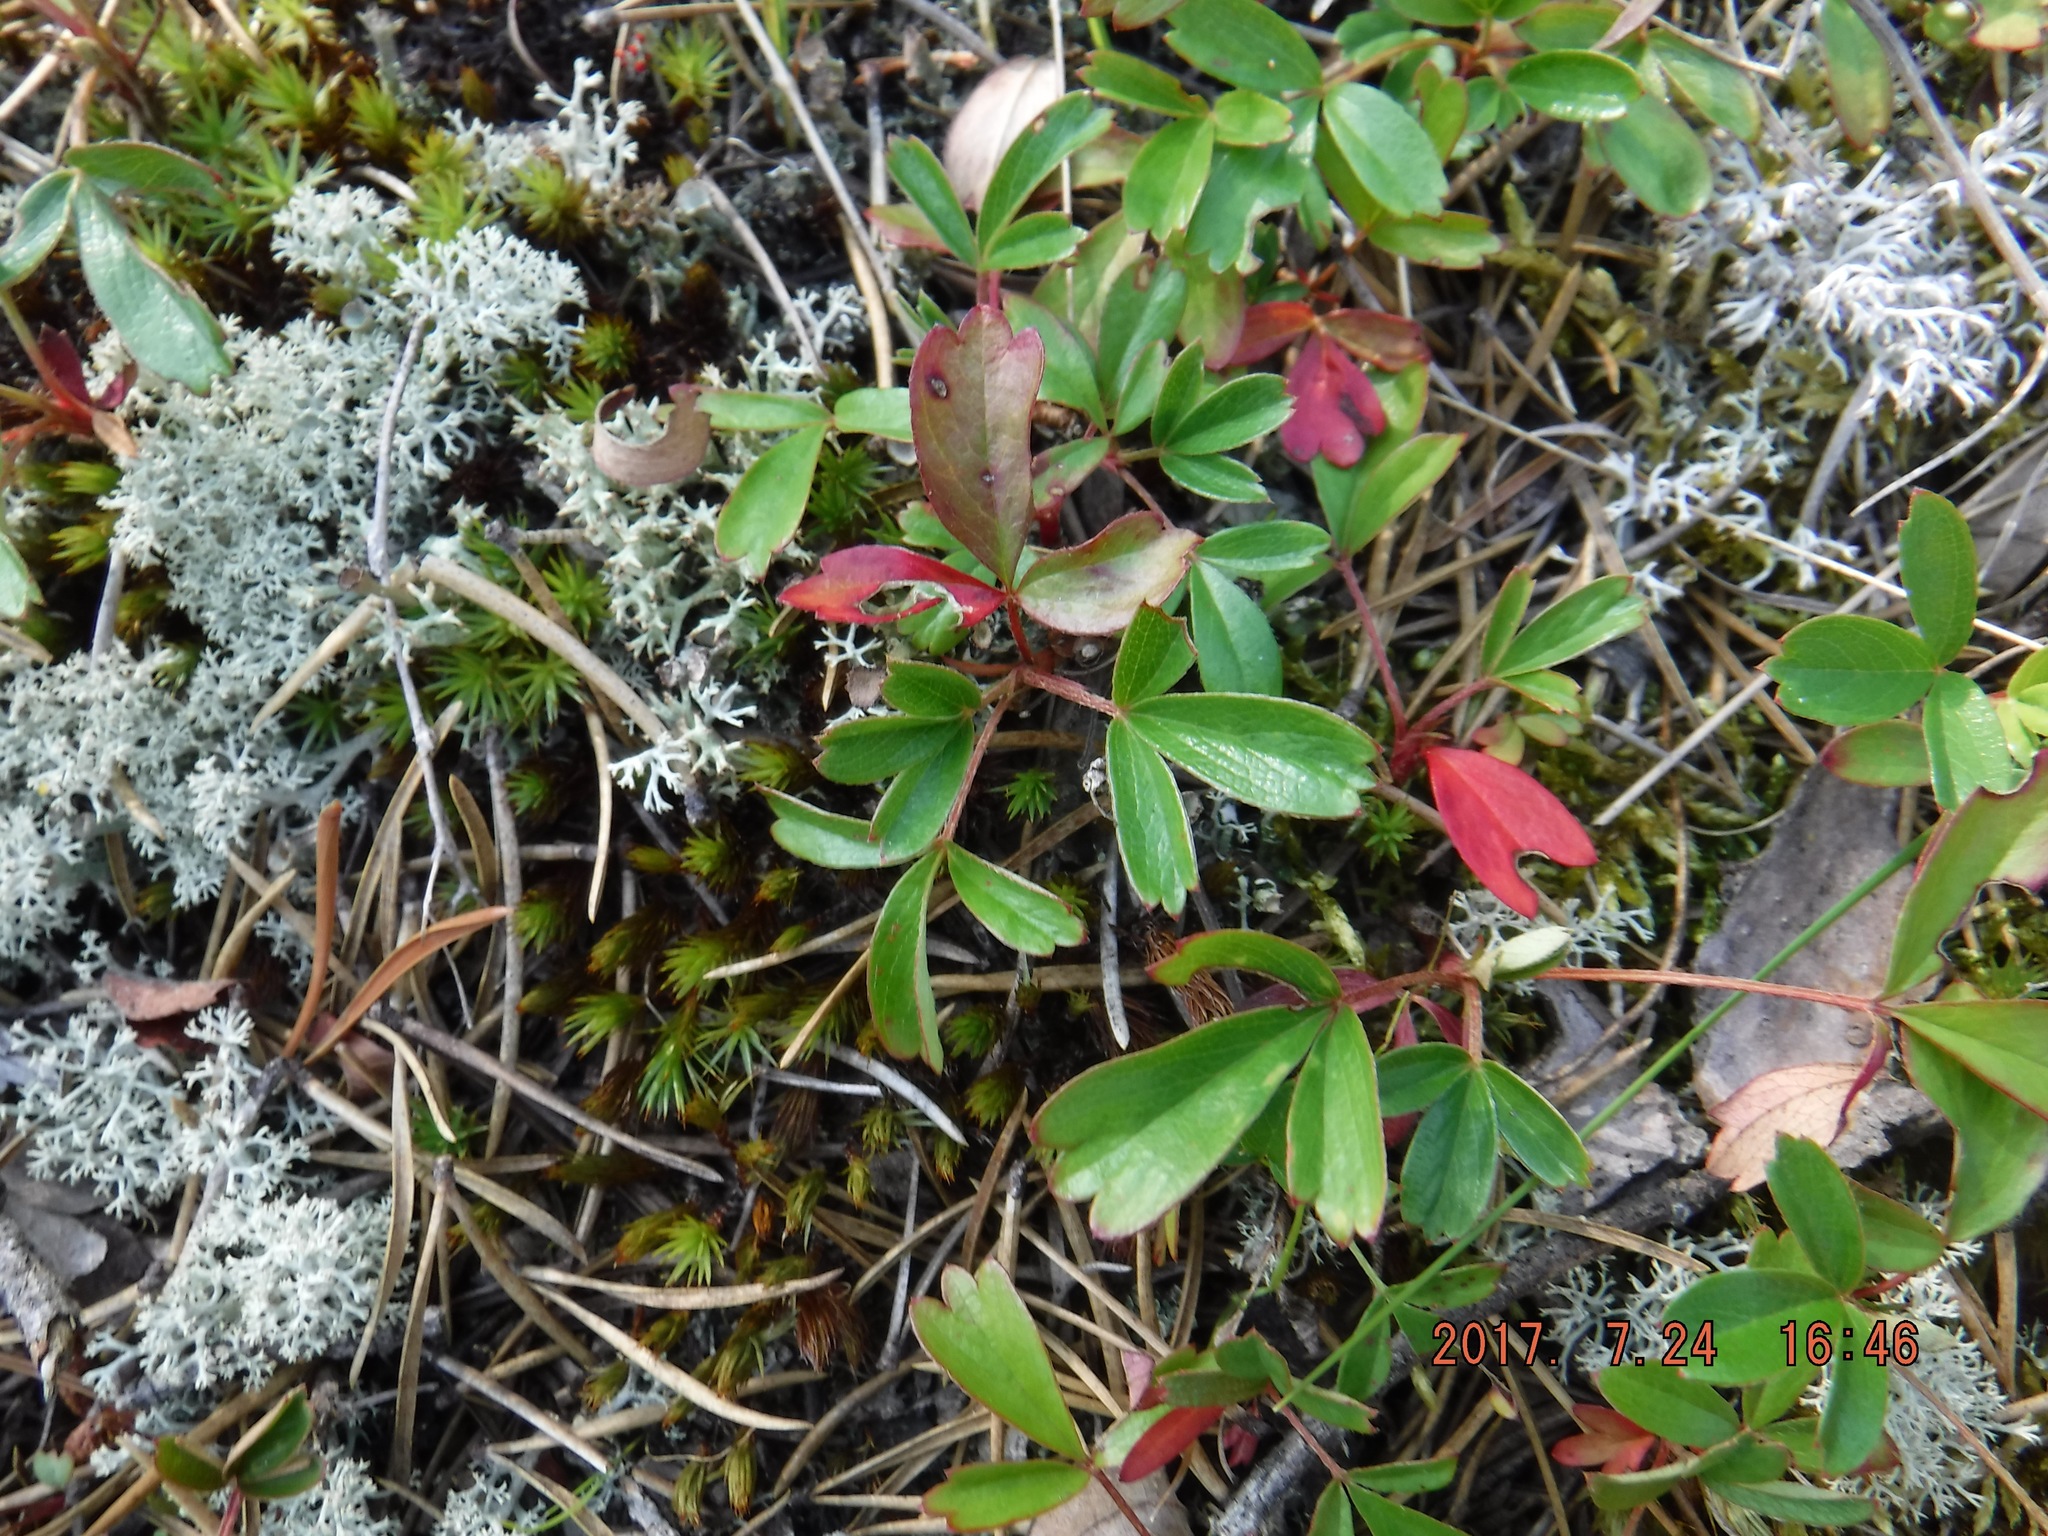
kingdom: Plantae
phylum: Tracheophyta
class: Magnoliopsida
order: Rosales
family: Rosaceae
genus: Sibbaldia
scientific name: Sibbaldia tridentata
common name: Three-toothed cinquefoil
